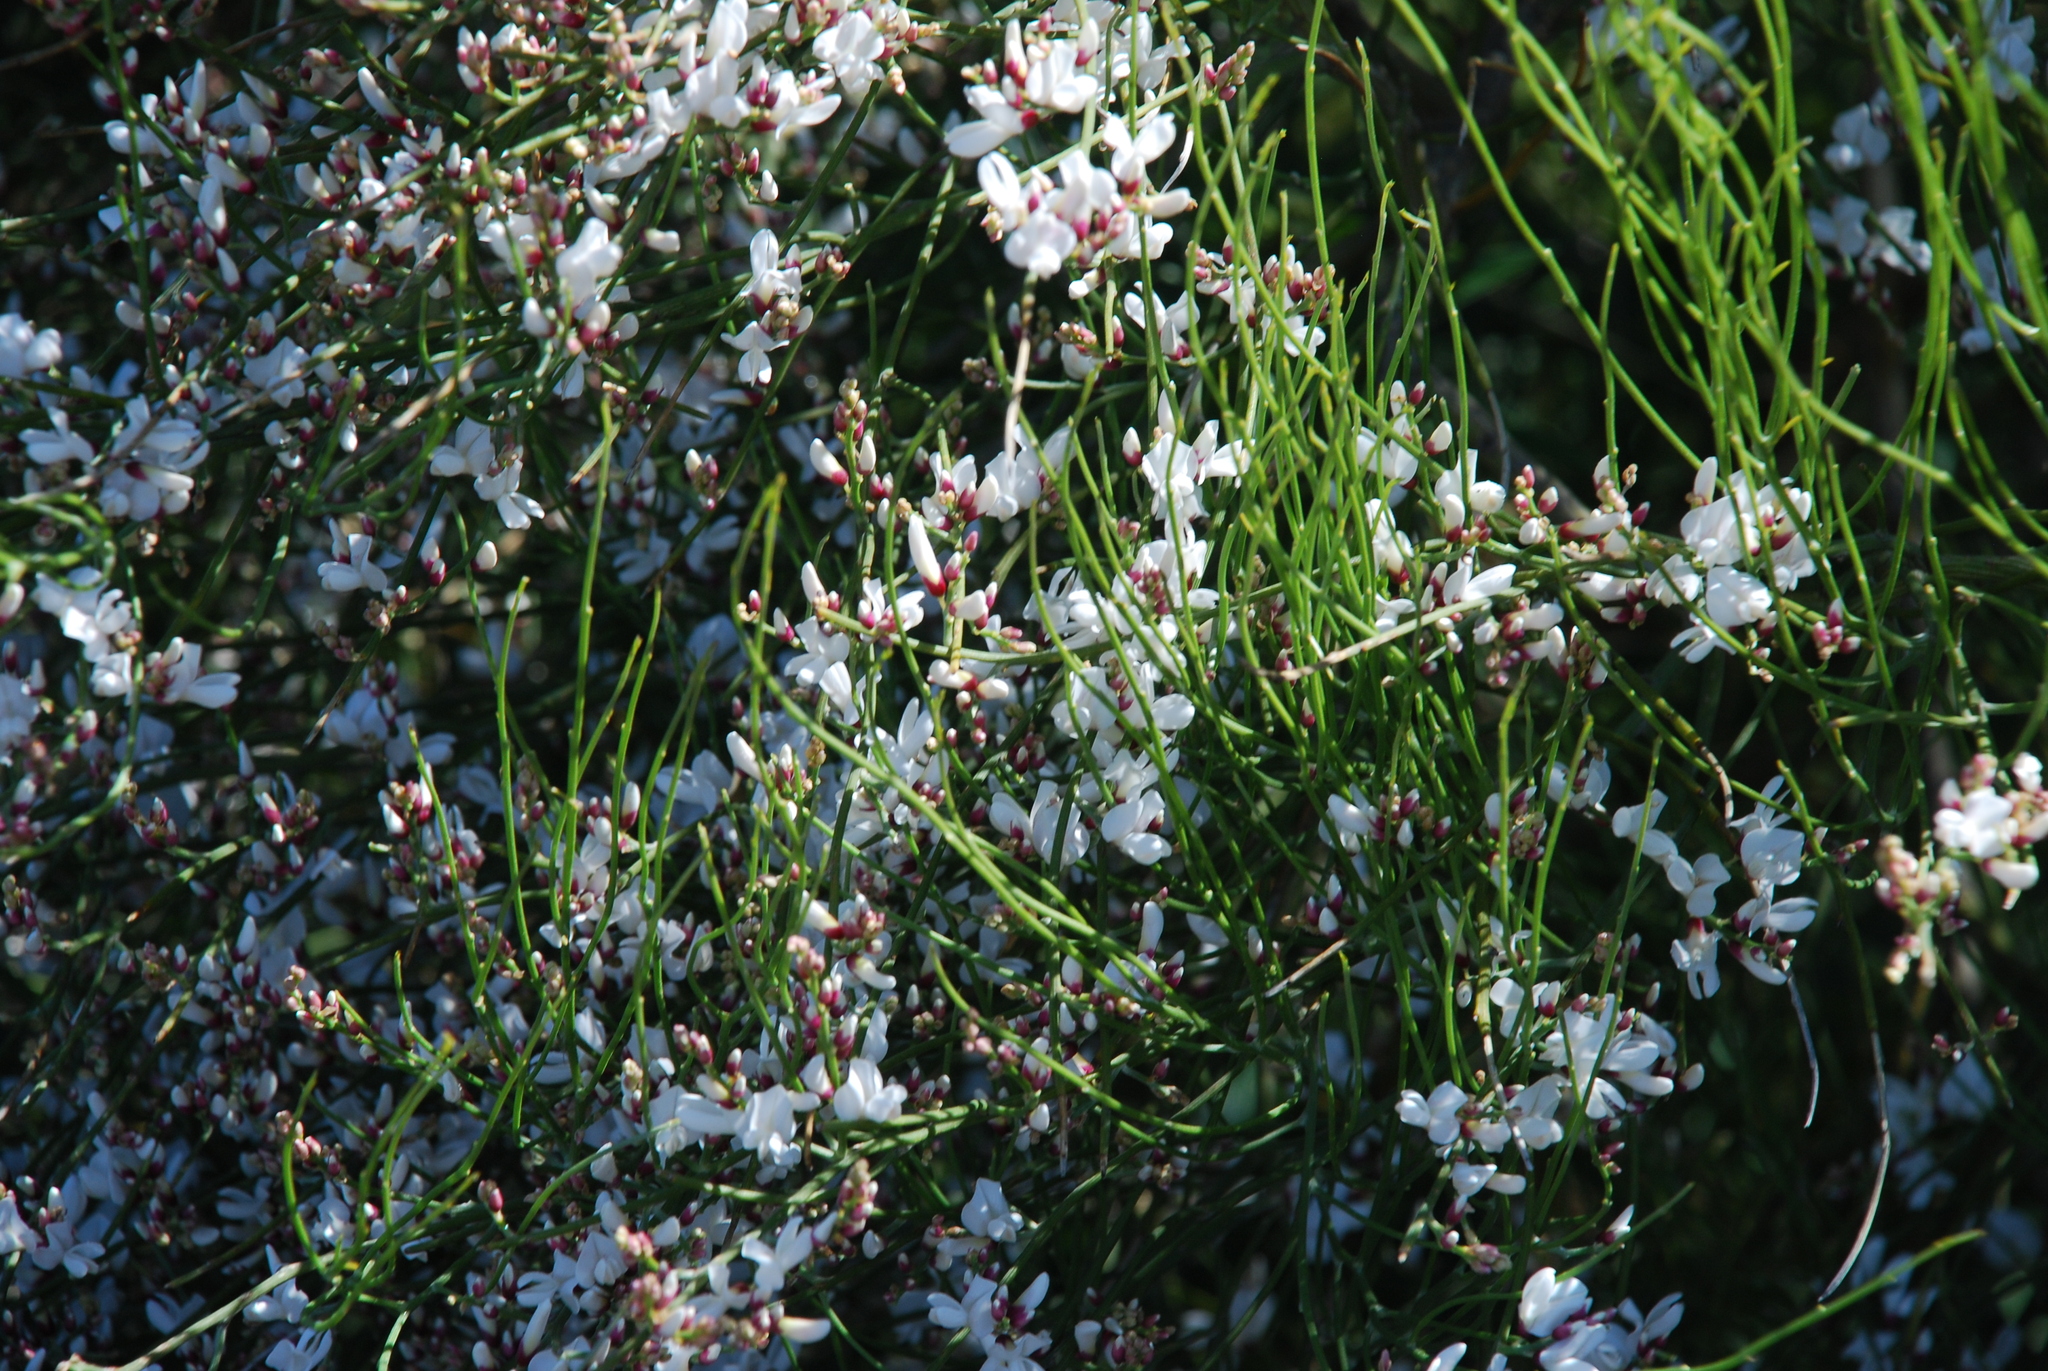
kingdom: Plantae
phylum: Tracheophyta
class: Magnoliopsida
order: Fabales
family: Fabaceae
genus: Retama
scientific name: Retama rhodorhizoides
